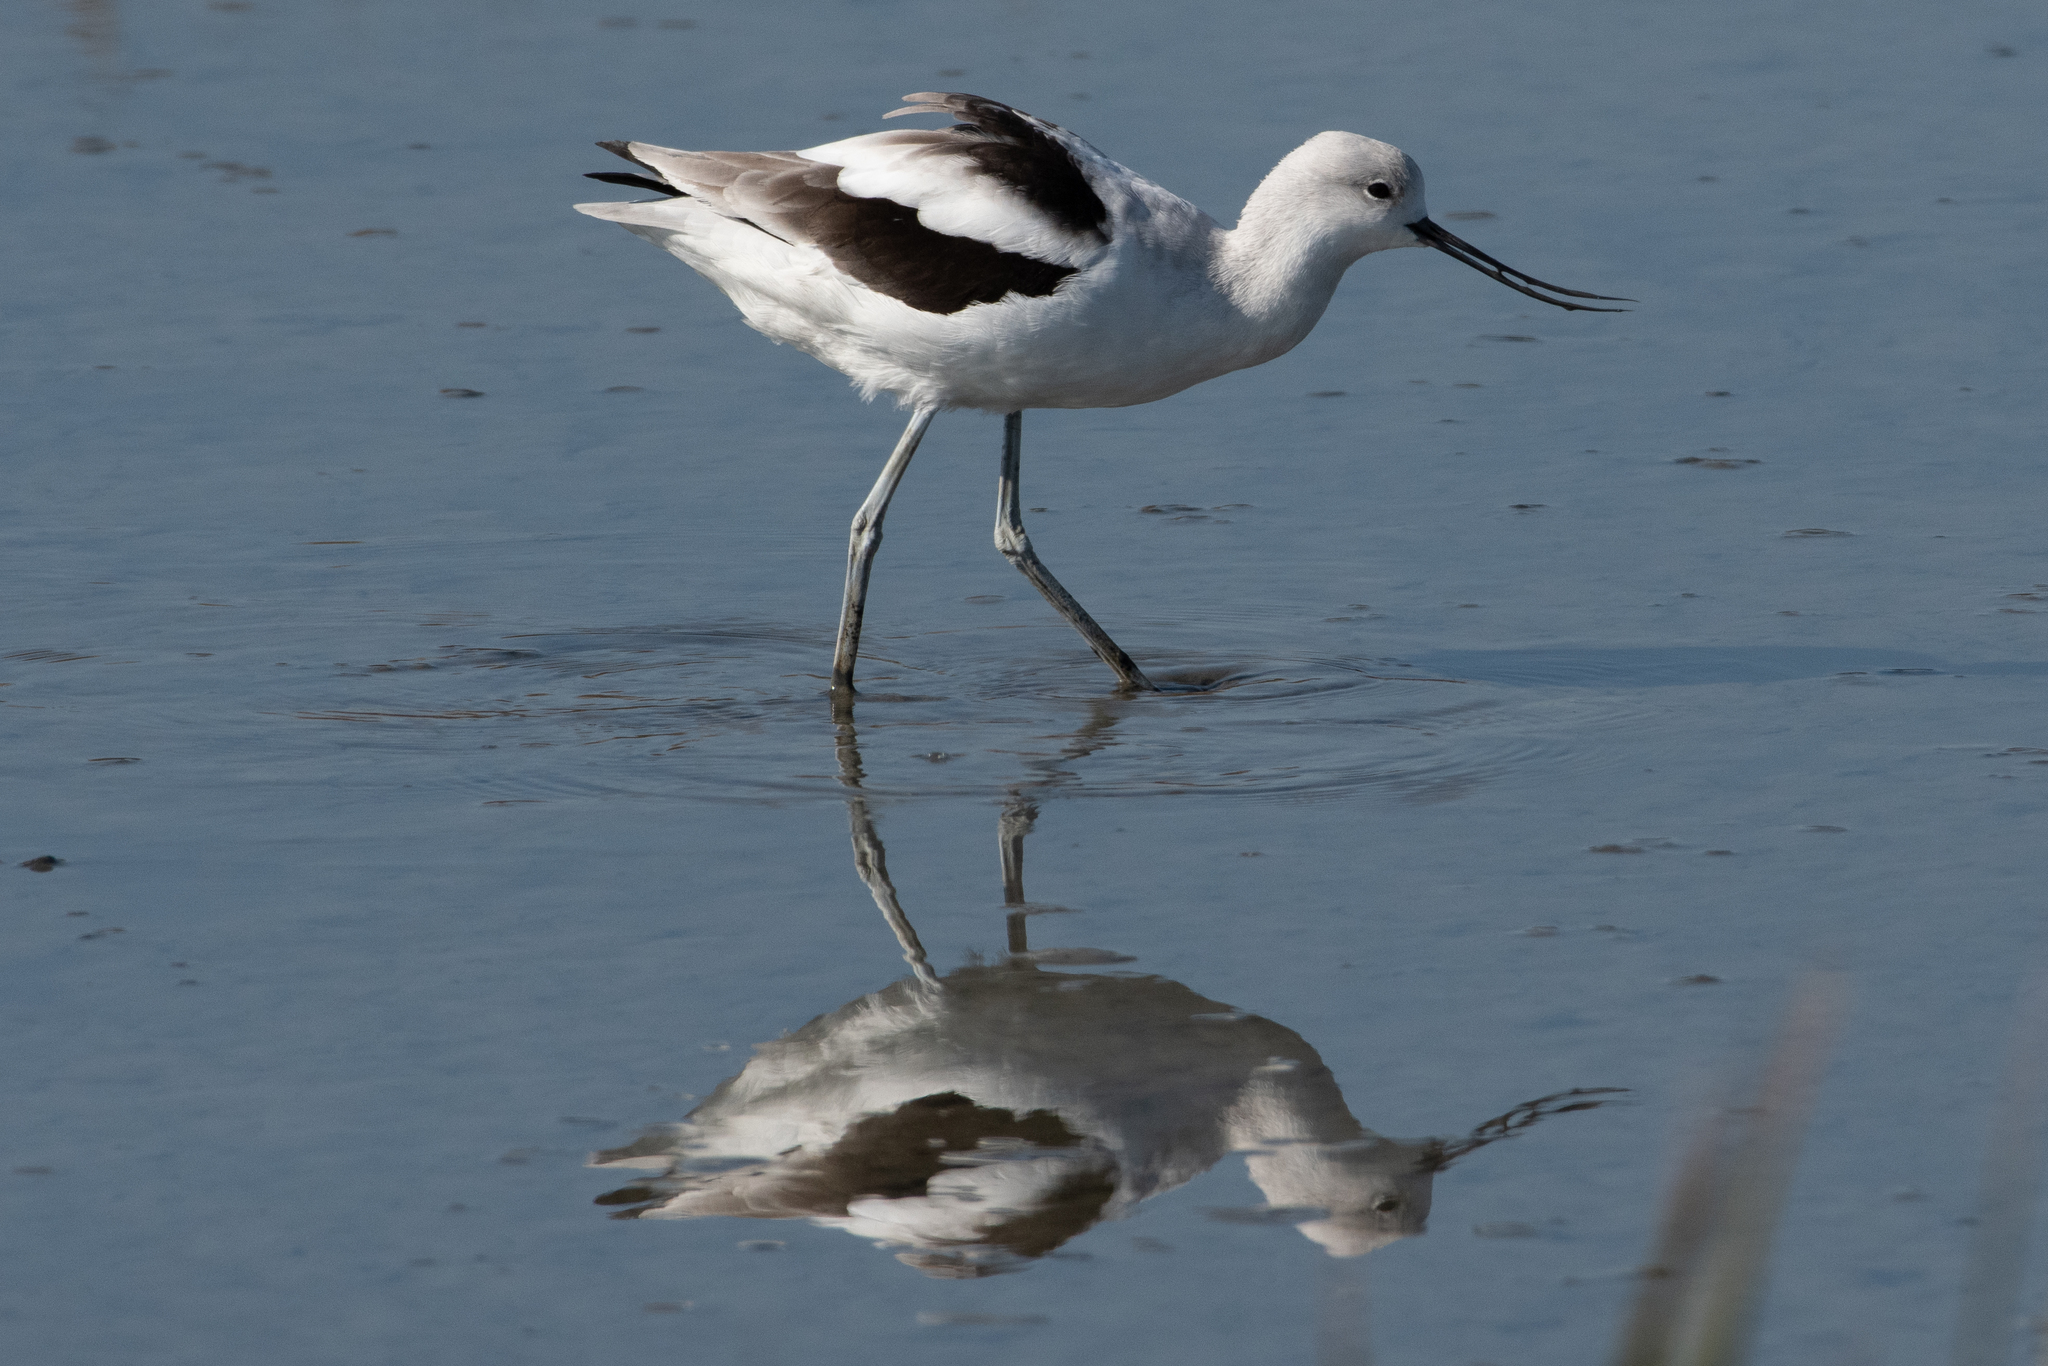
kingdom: Animalia
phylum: Chordata
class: Aves
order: Charadriiformes
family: Recurvirostridae
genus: Recurvirostra
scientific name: Recurvirostra americana
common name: American avocet
